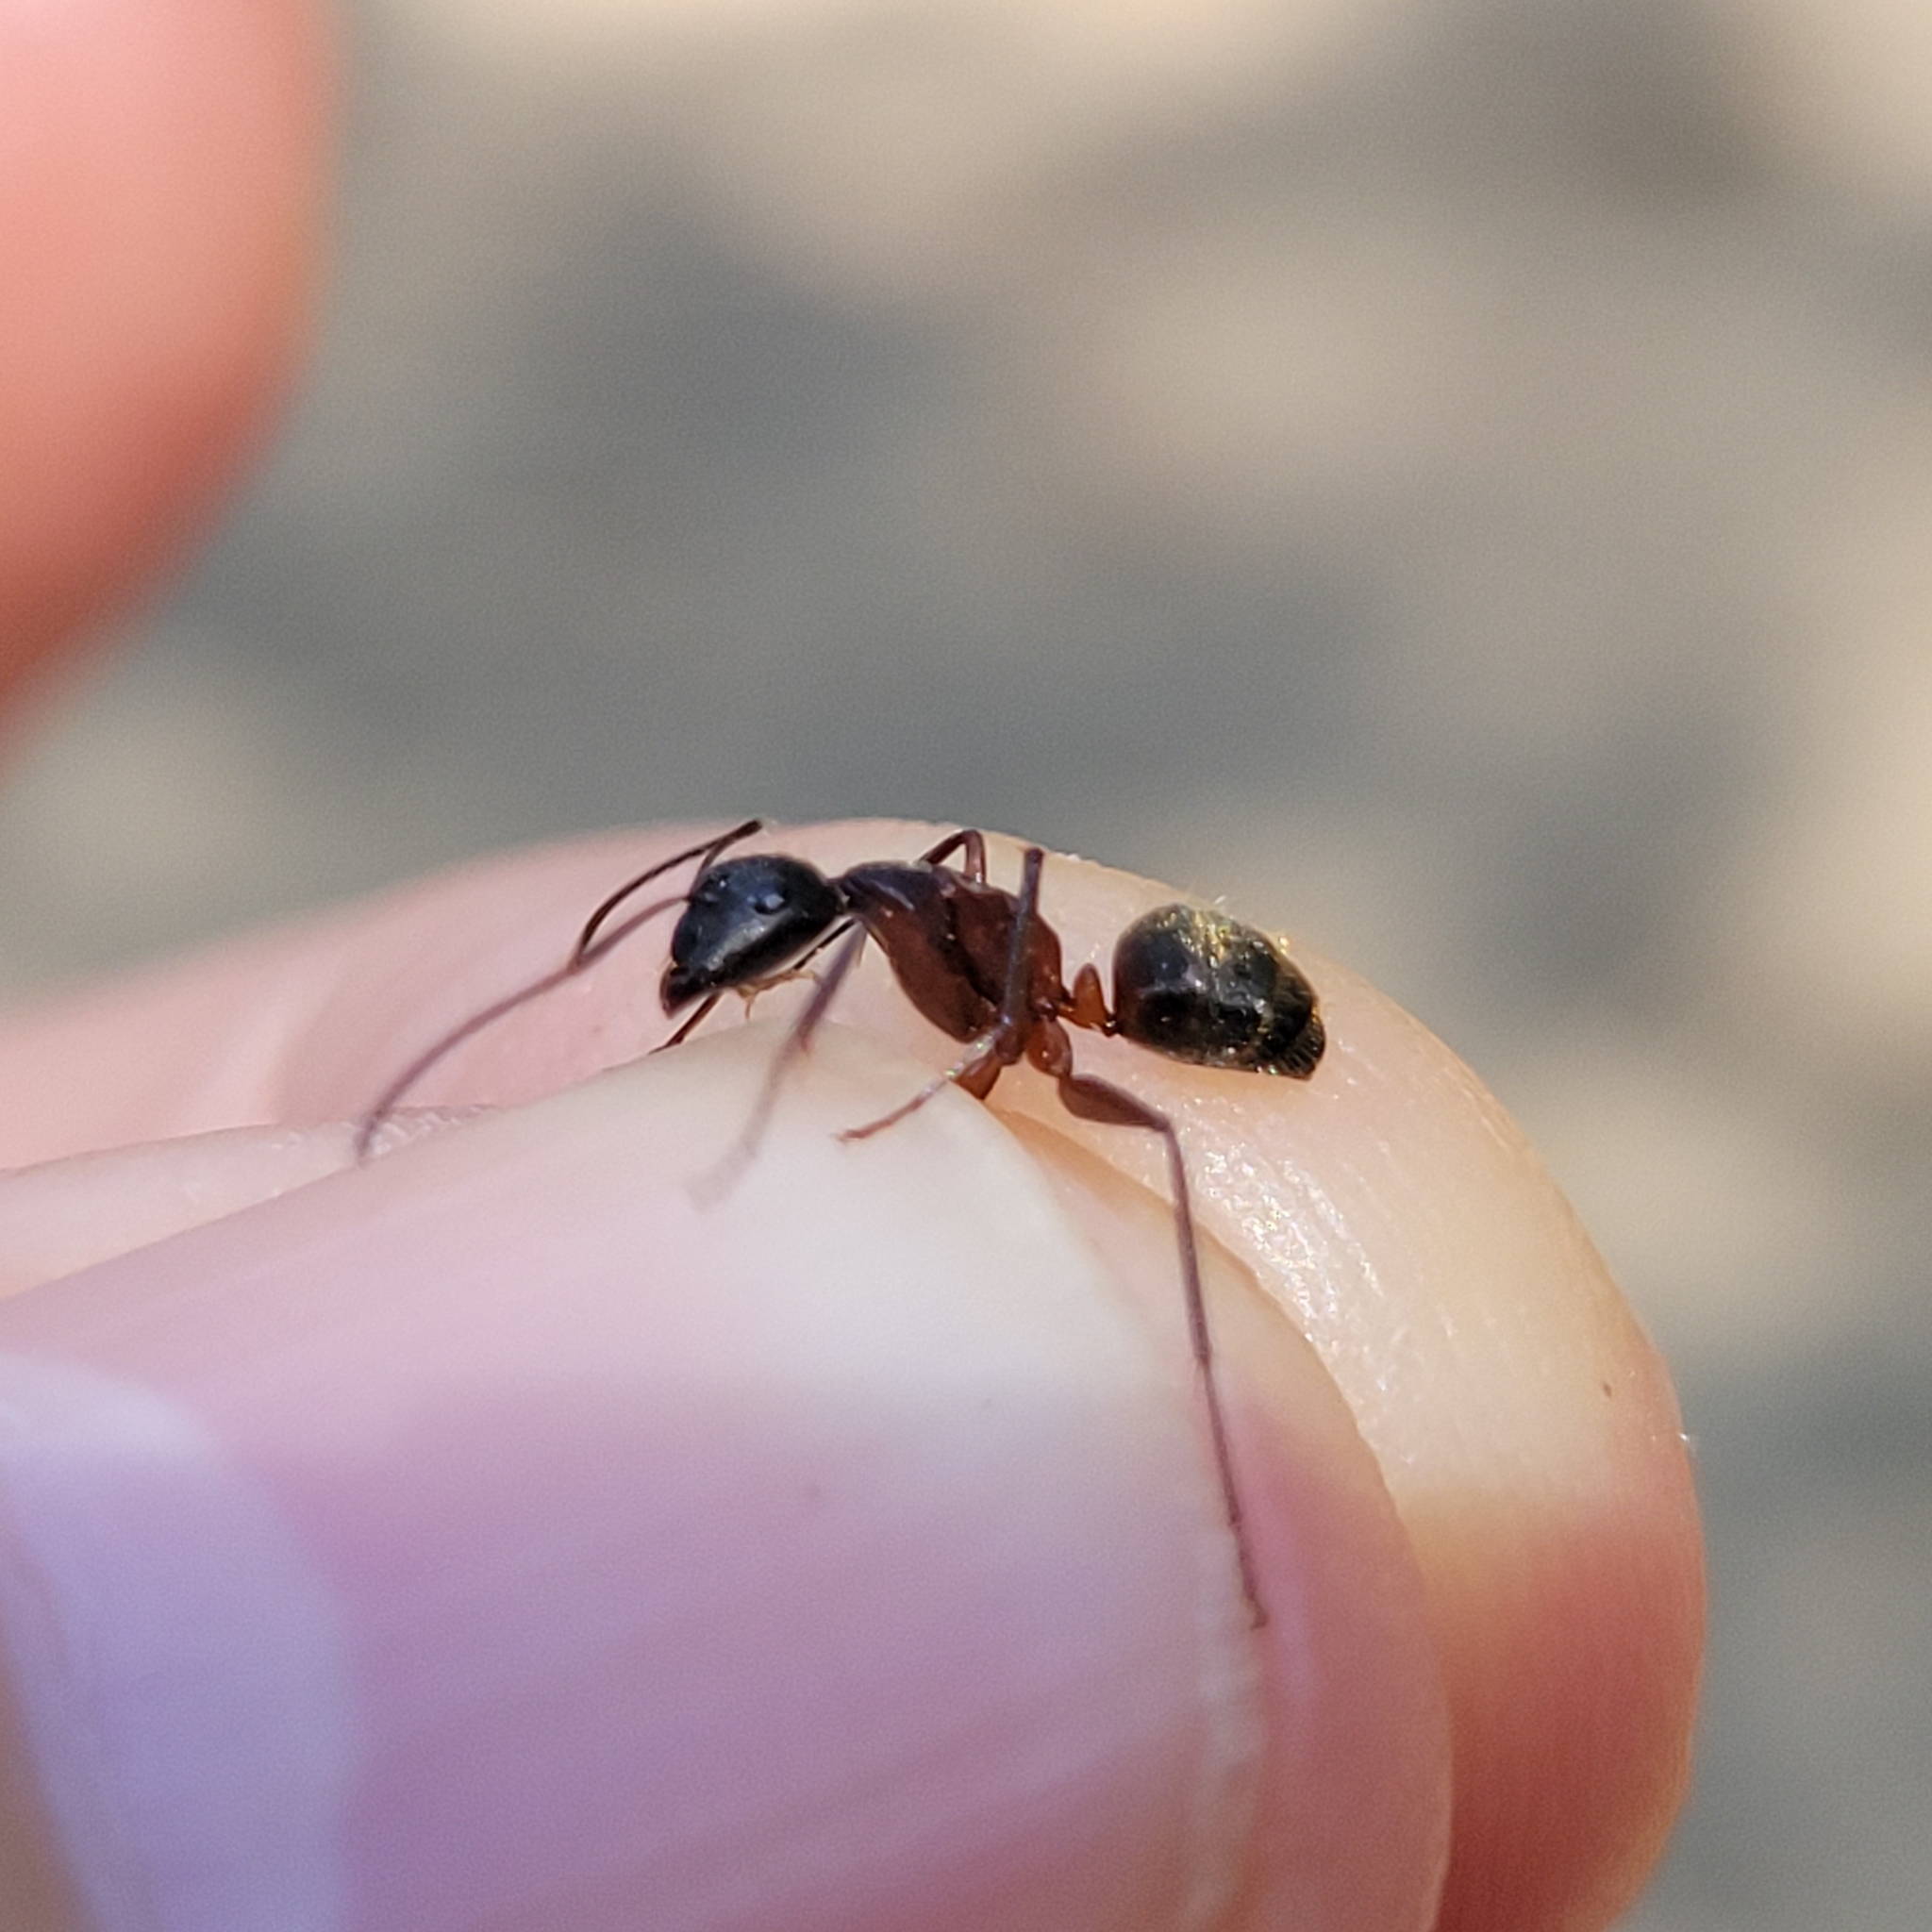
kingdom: Animalia
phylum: Arthropoda
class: Insecta
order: Hymenoptera
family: Formicidae
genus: Camponotus
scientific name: Camponotus chromaiodes
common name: Red carpenter ant
